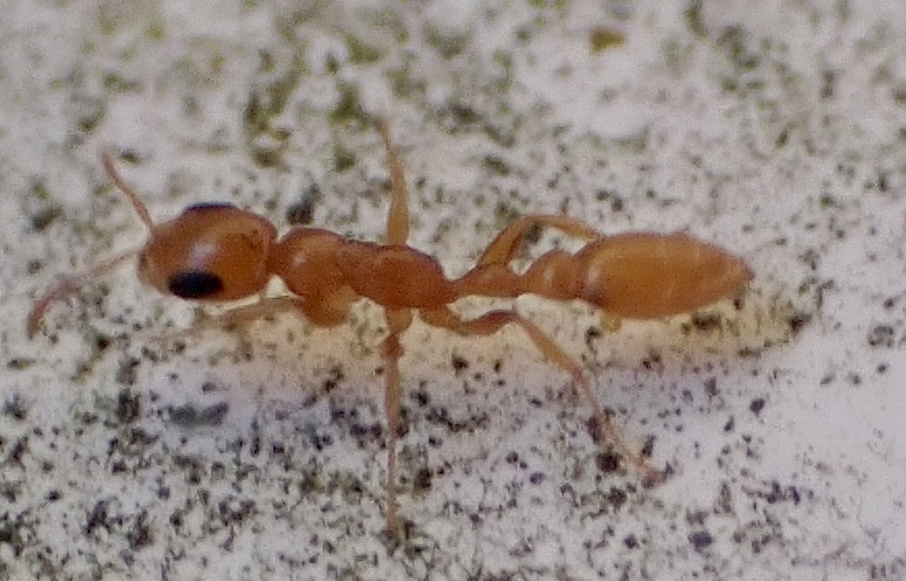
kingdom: Animalia
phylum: Arthropoda
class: Insecta
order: Hymenoptera
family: Formicidae
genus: Pseudomyrmex
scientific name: Pseudomyrmex pallidus
